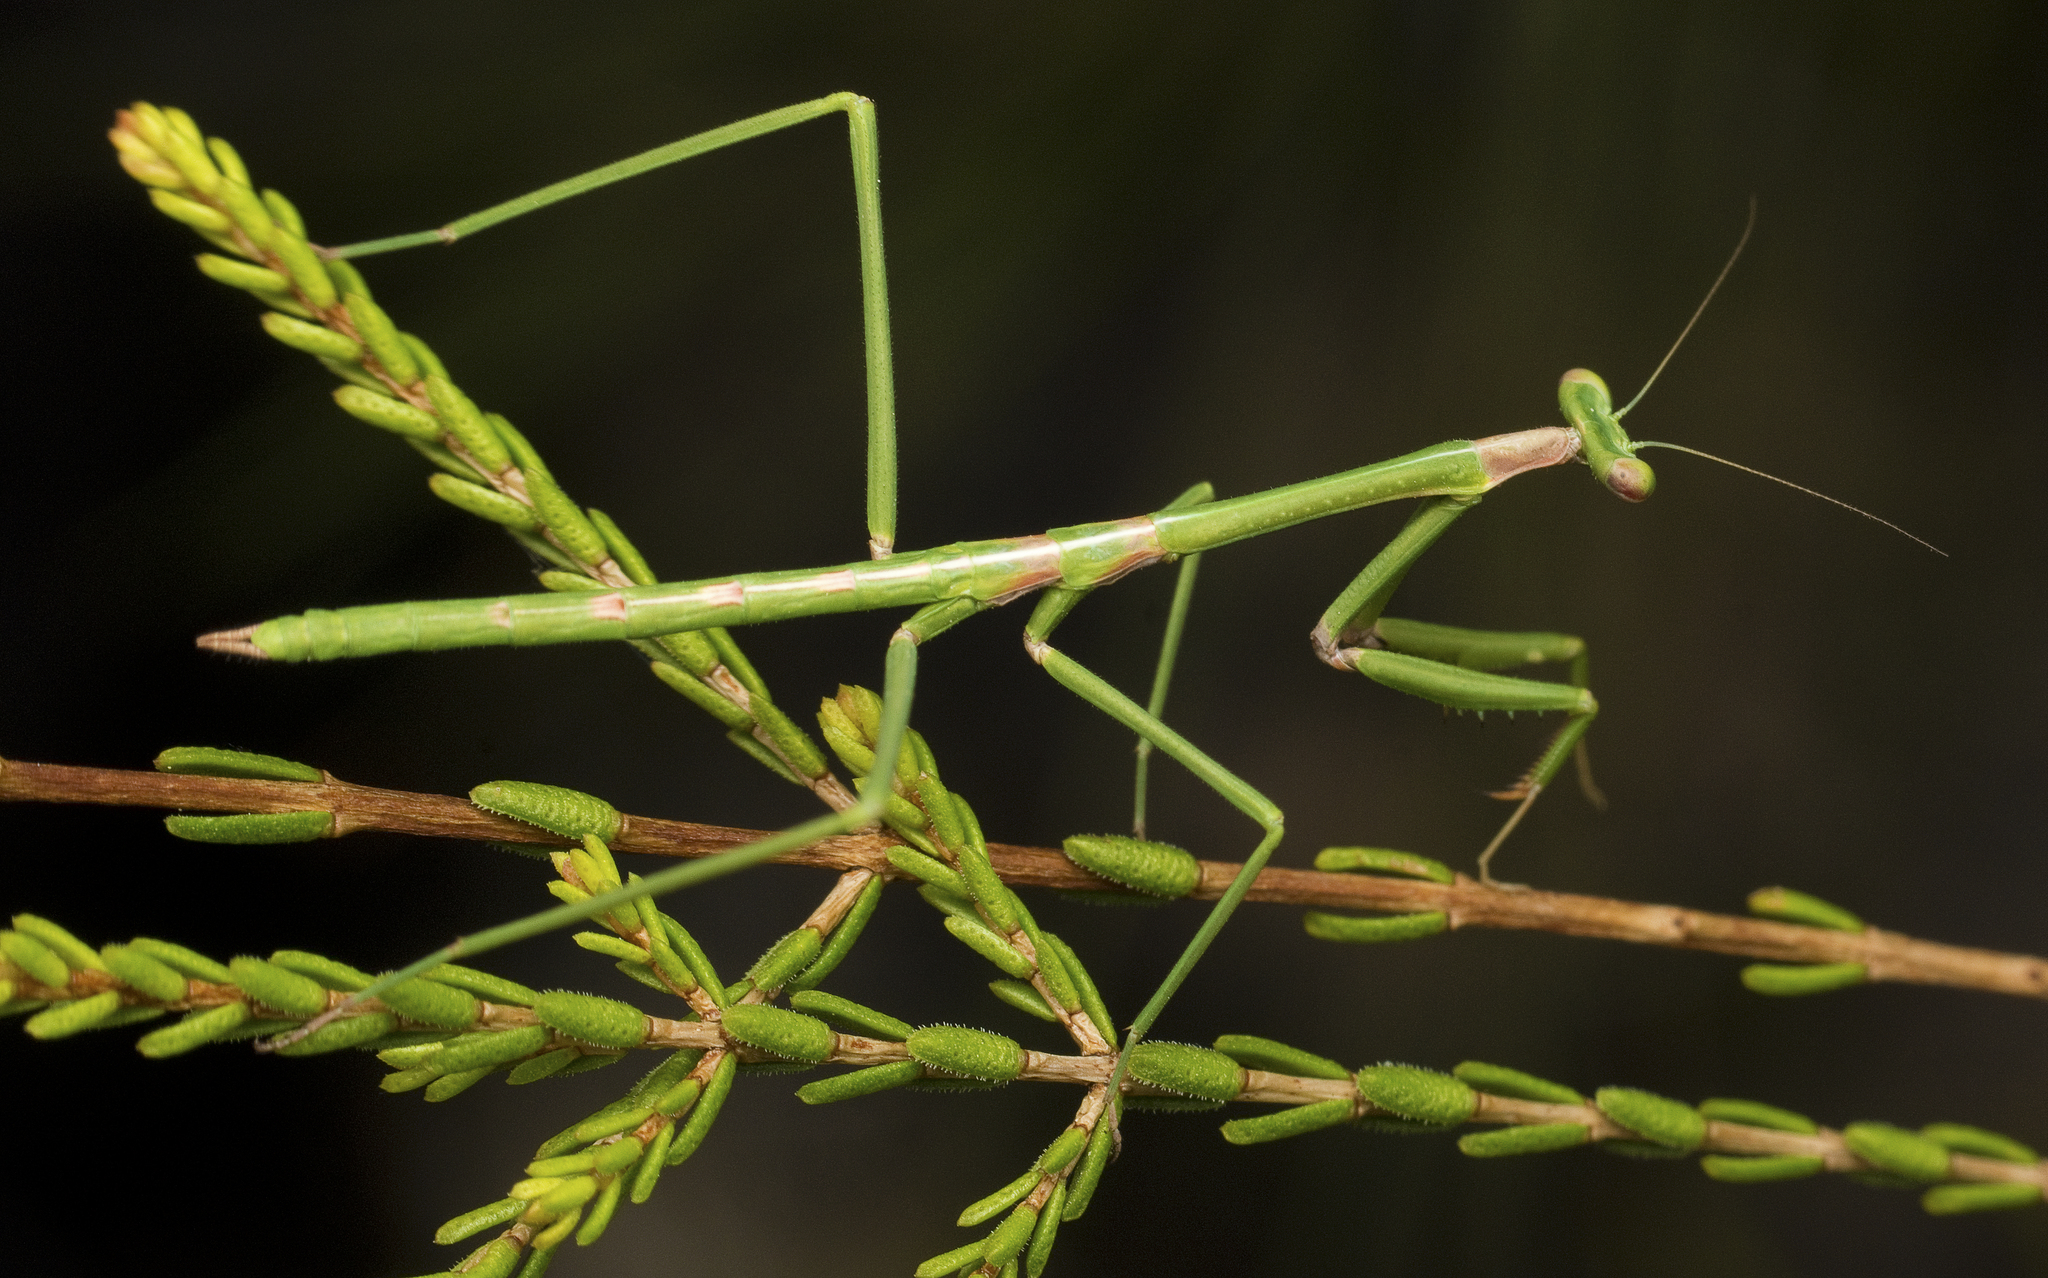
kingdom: Animalia
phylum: Arthropoda
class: Insecta
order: Mantodea
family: Mantidae
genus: Archimantis
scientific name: Archimantis latistyla
